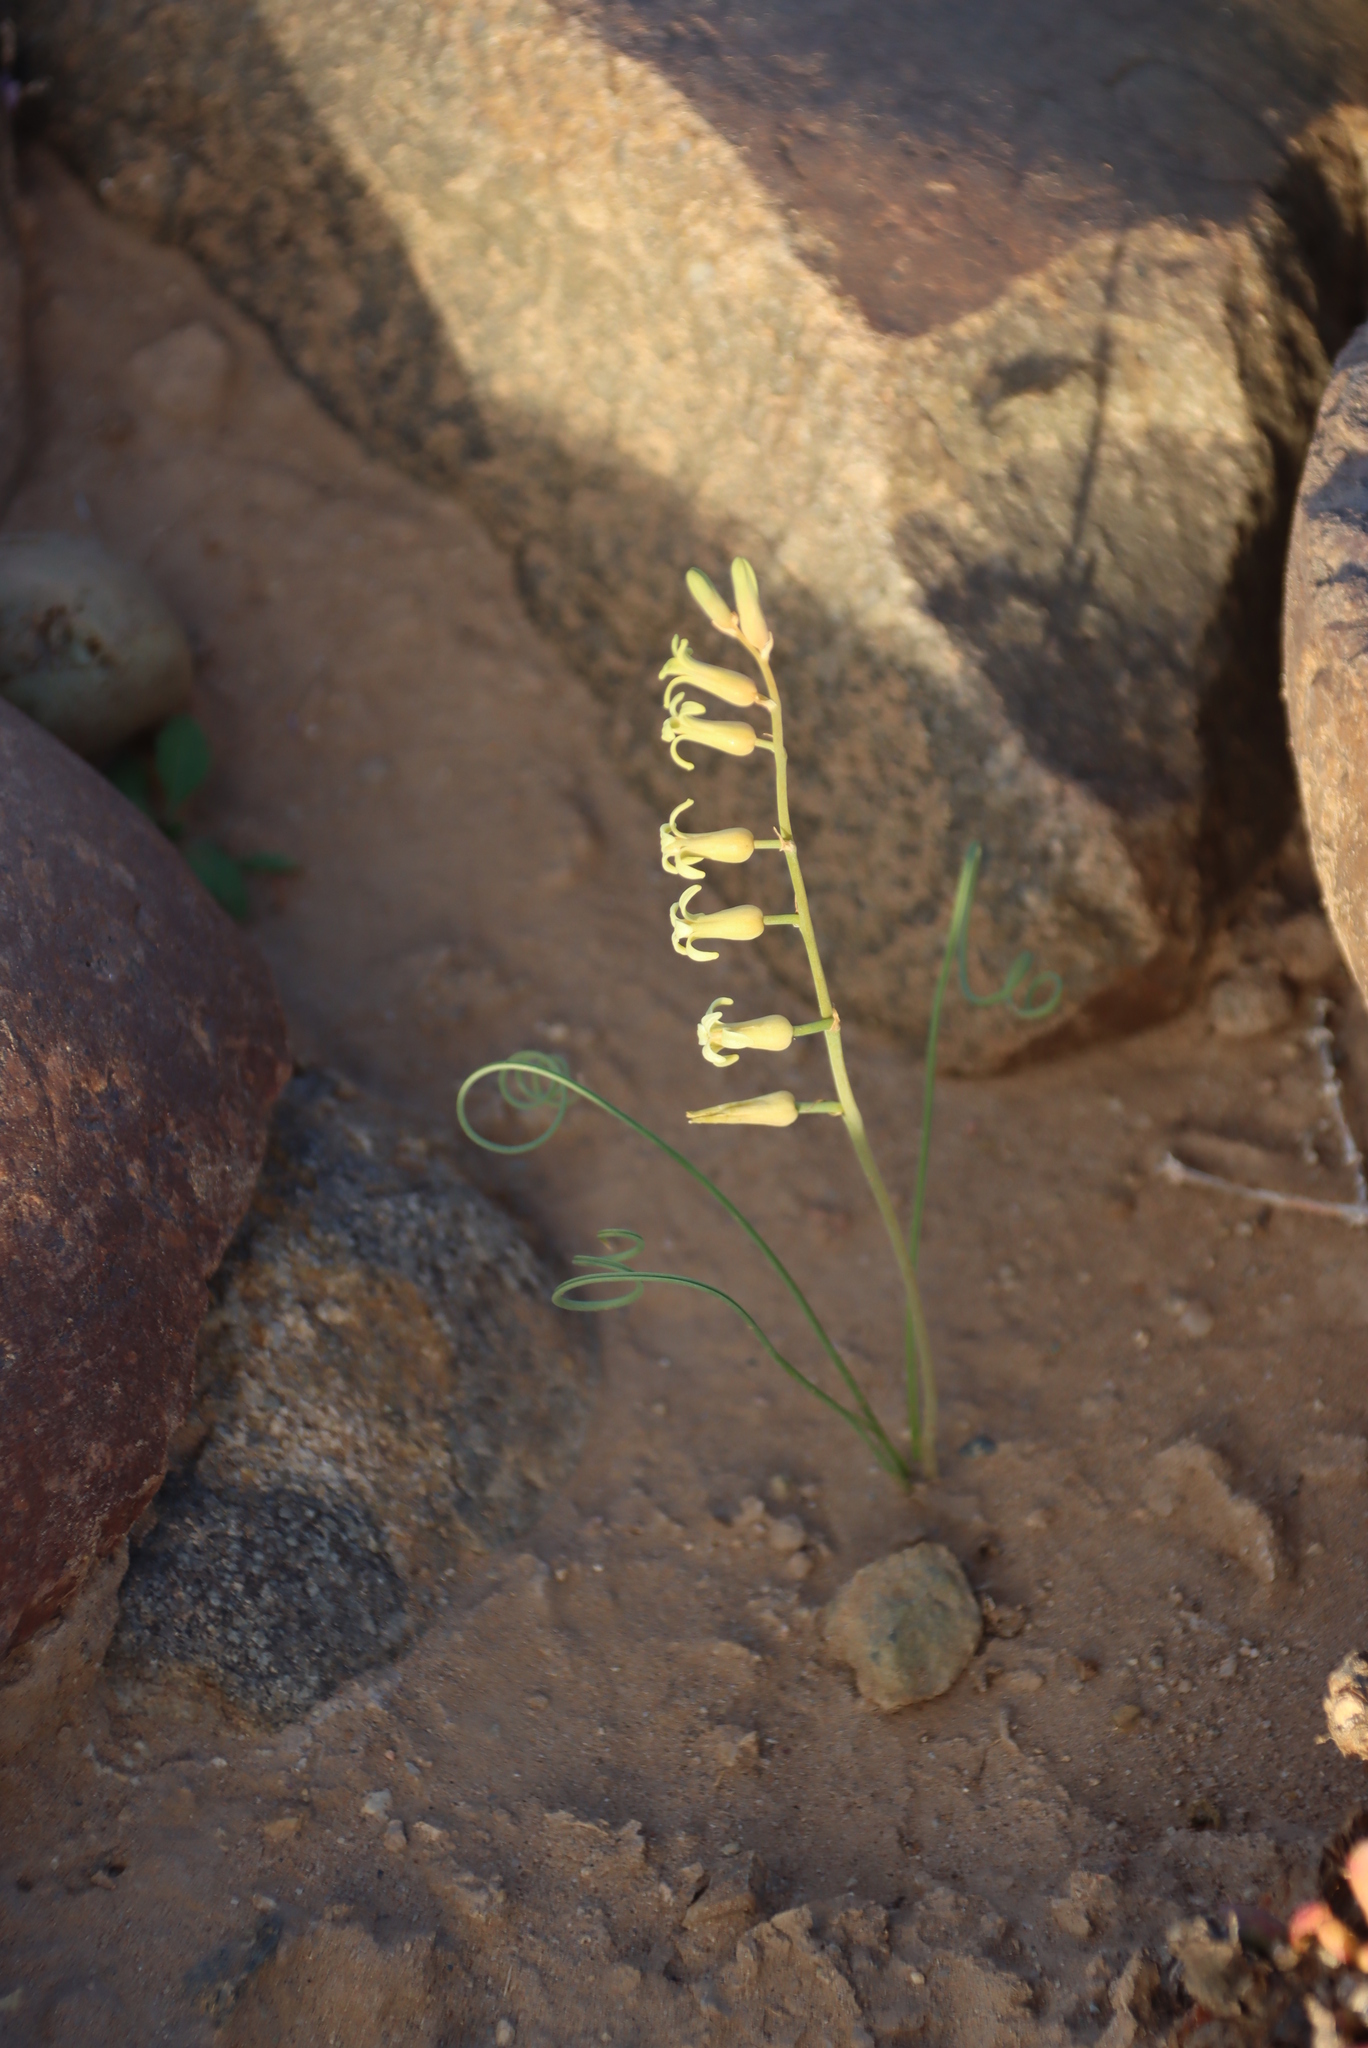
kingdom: Plantae
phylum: Tracheophyta
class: Liliopsida
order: Asparagales
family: Asparagaceae
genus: Dipcadi
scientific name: Dipcadi brevifolium
